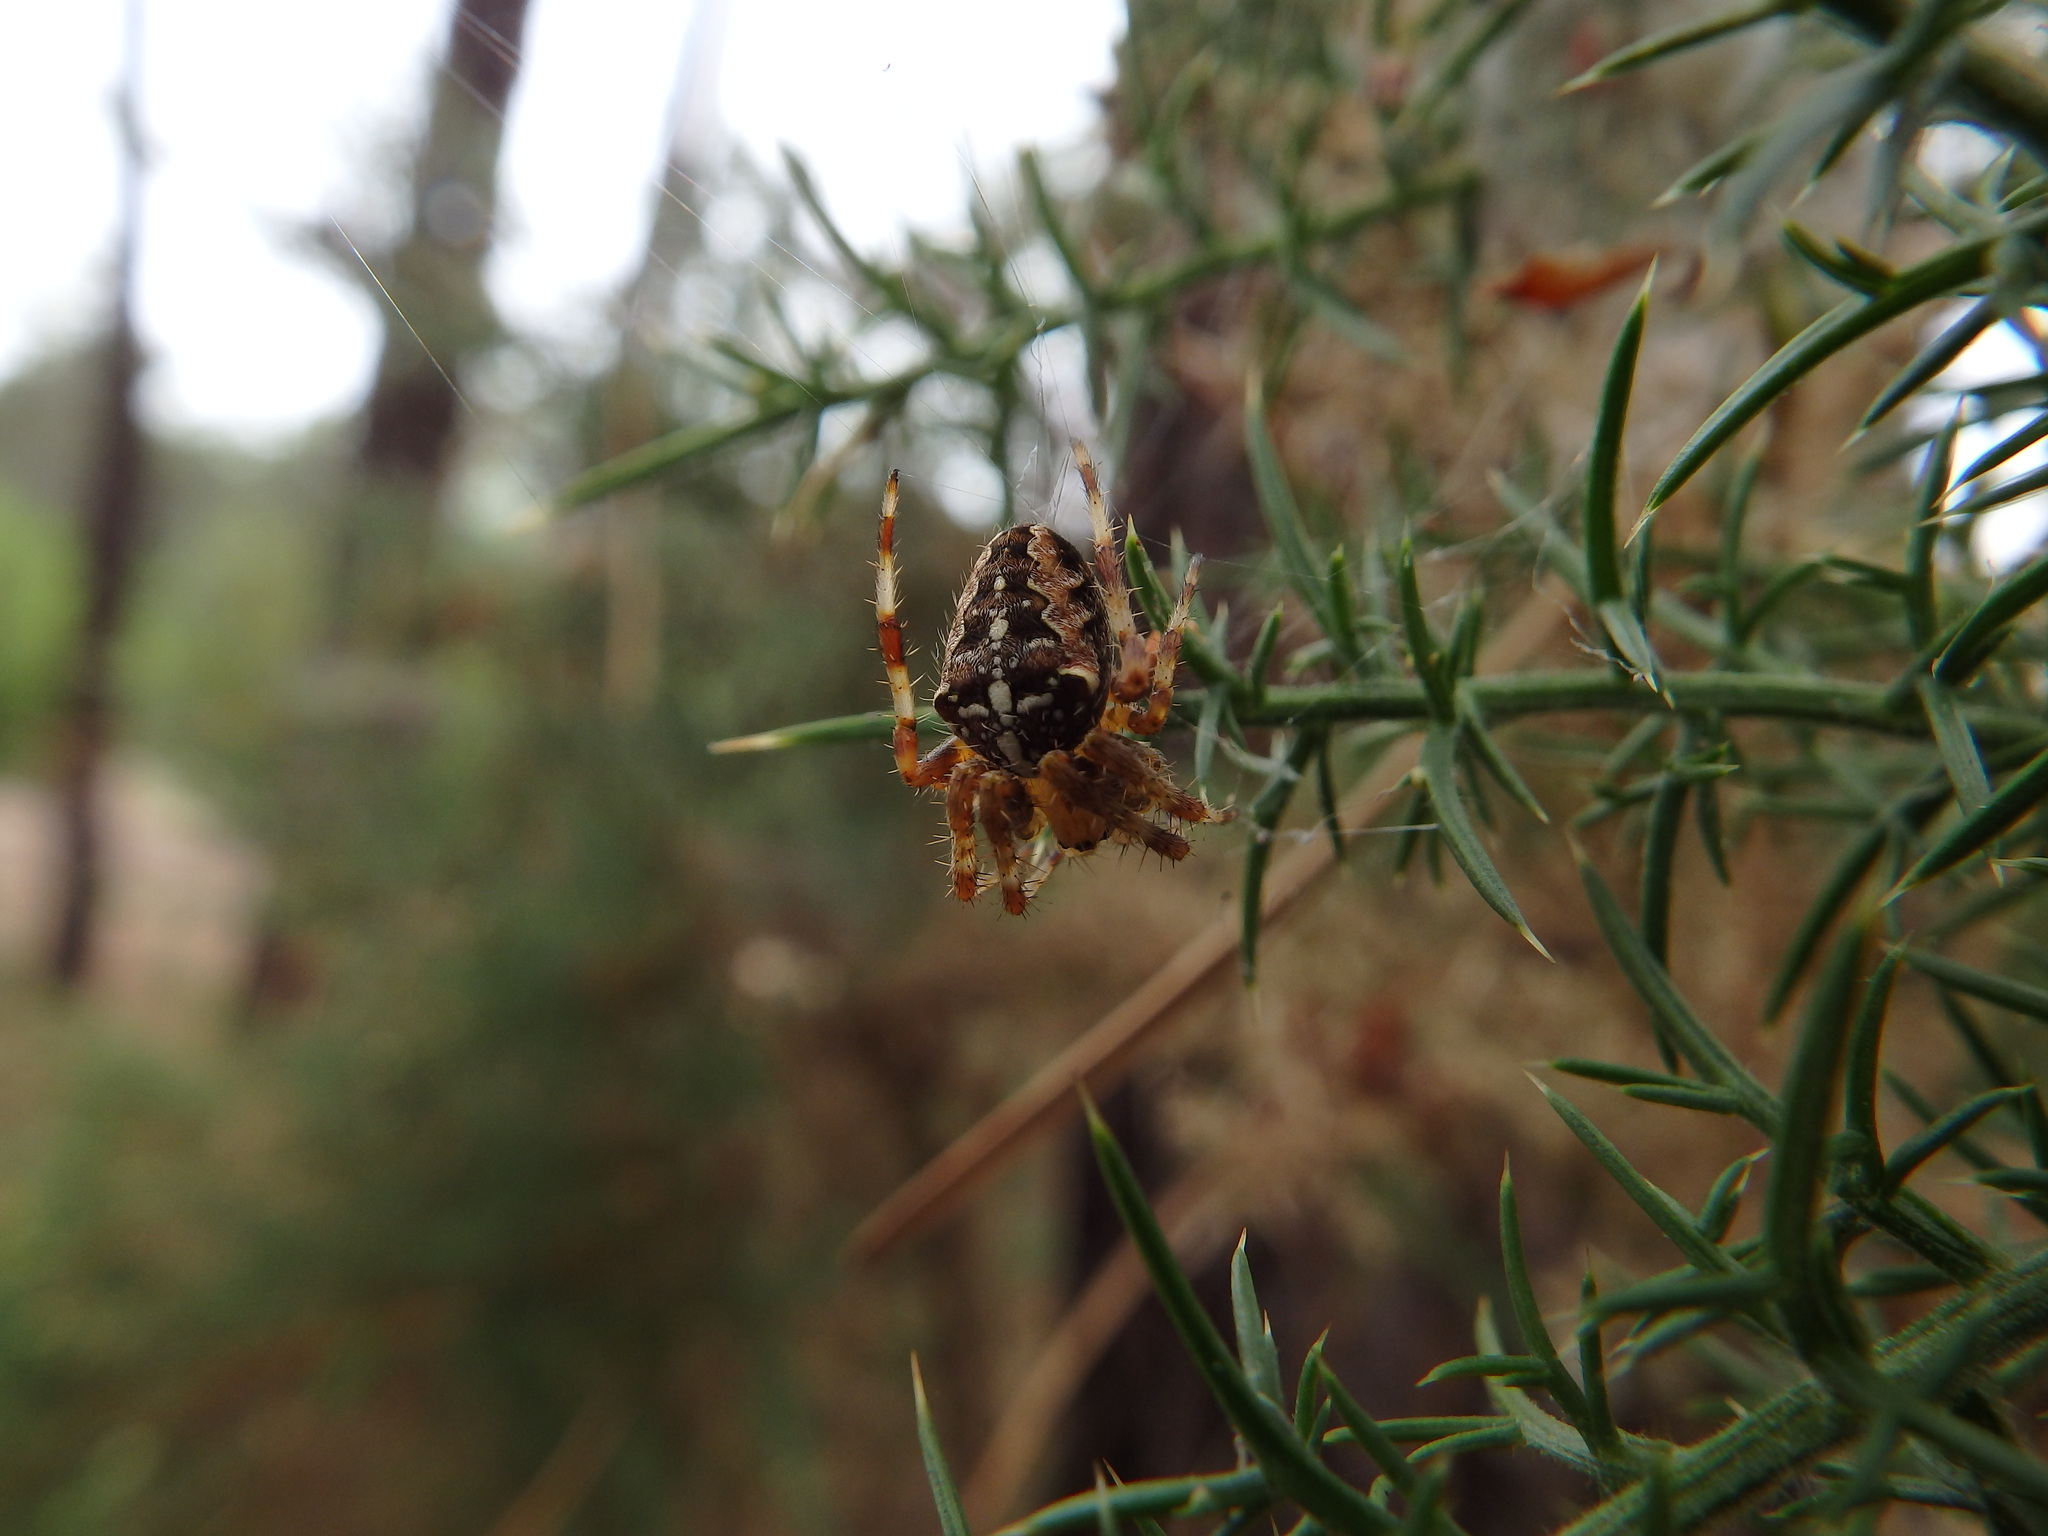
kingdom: Animalia
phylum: Arthropoda
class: Arachnida
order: Araneae
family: Araneidae
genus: Araneus
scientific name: Araneus diadematus
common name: Cross orbweaver
